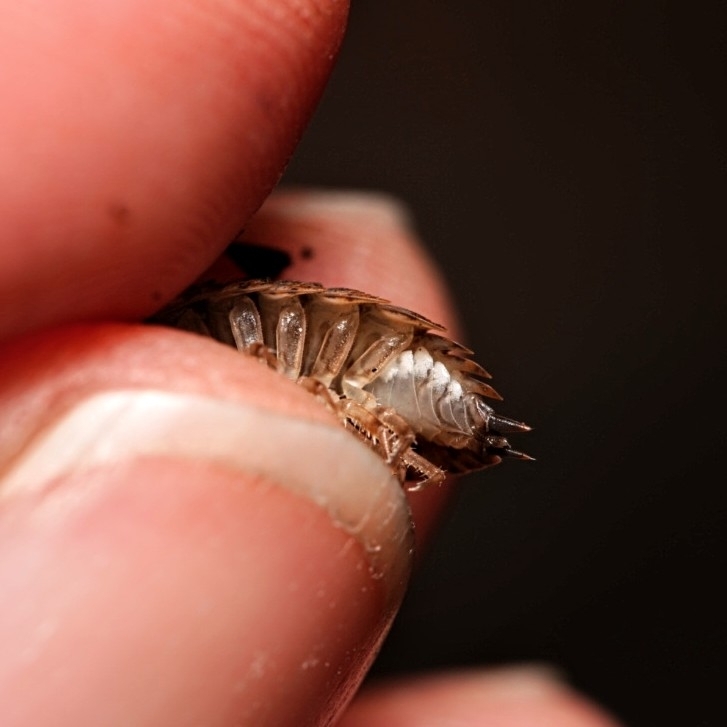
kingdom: Animalia
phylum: Arthropoda
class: Malacostraca
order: Isopoda
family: Trachelipodidae
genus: Trachelipus
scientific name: Trachelipus rathkii
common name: Isopod
